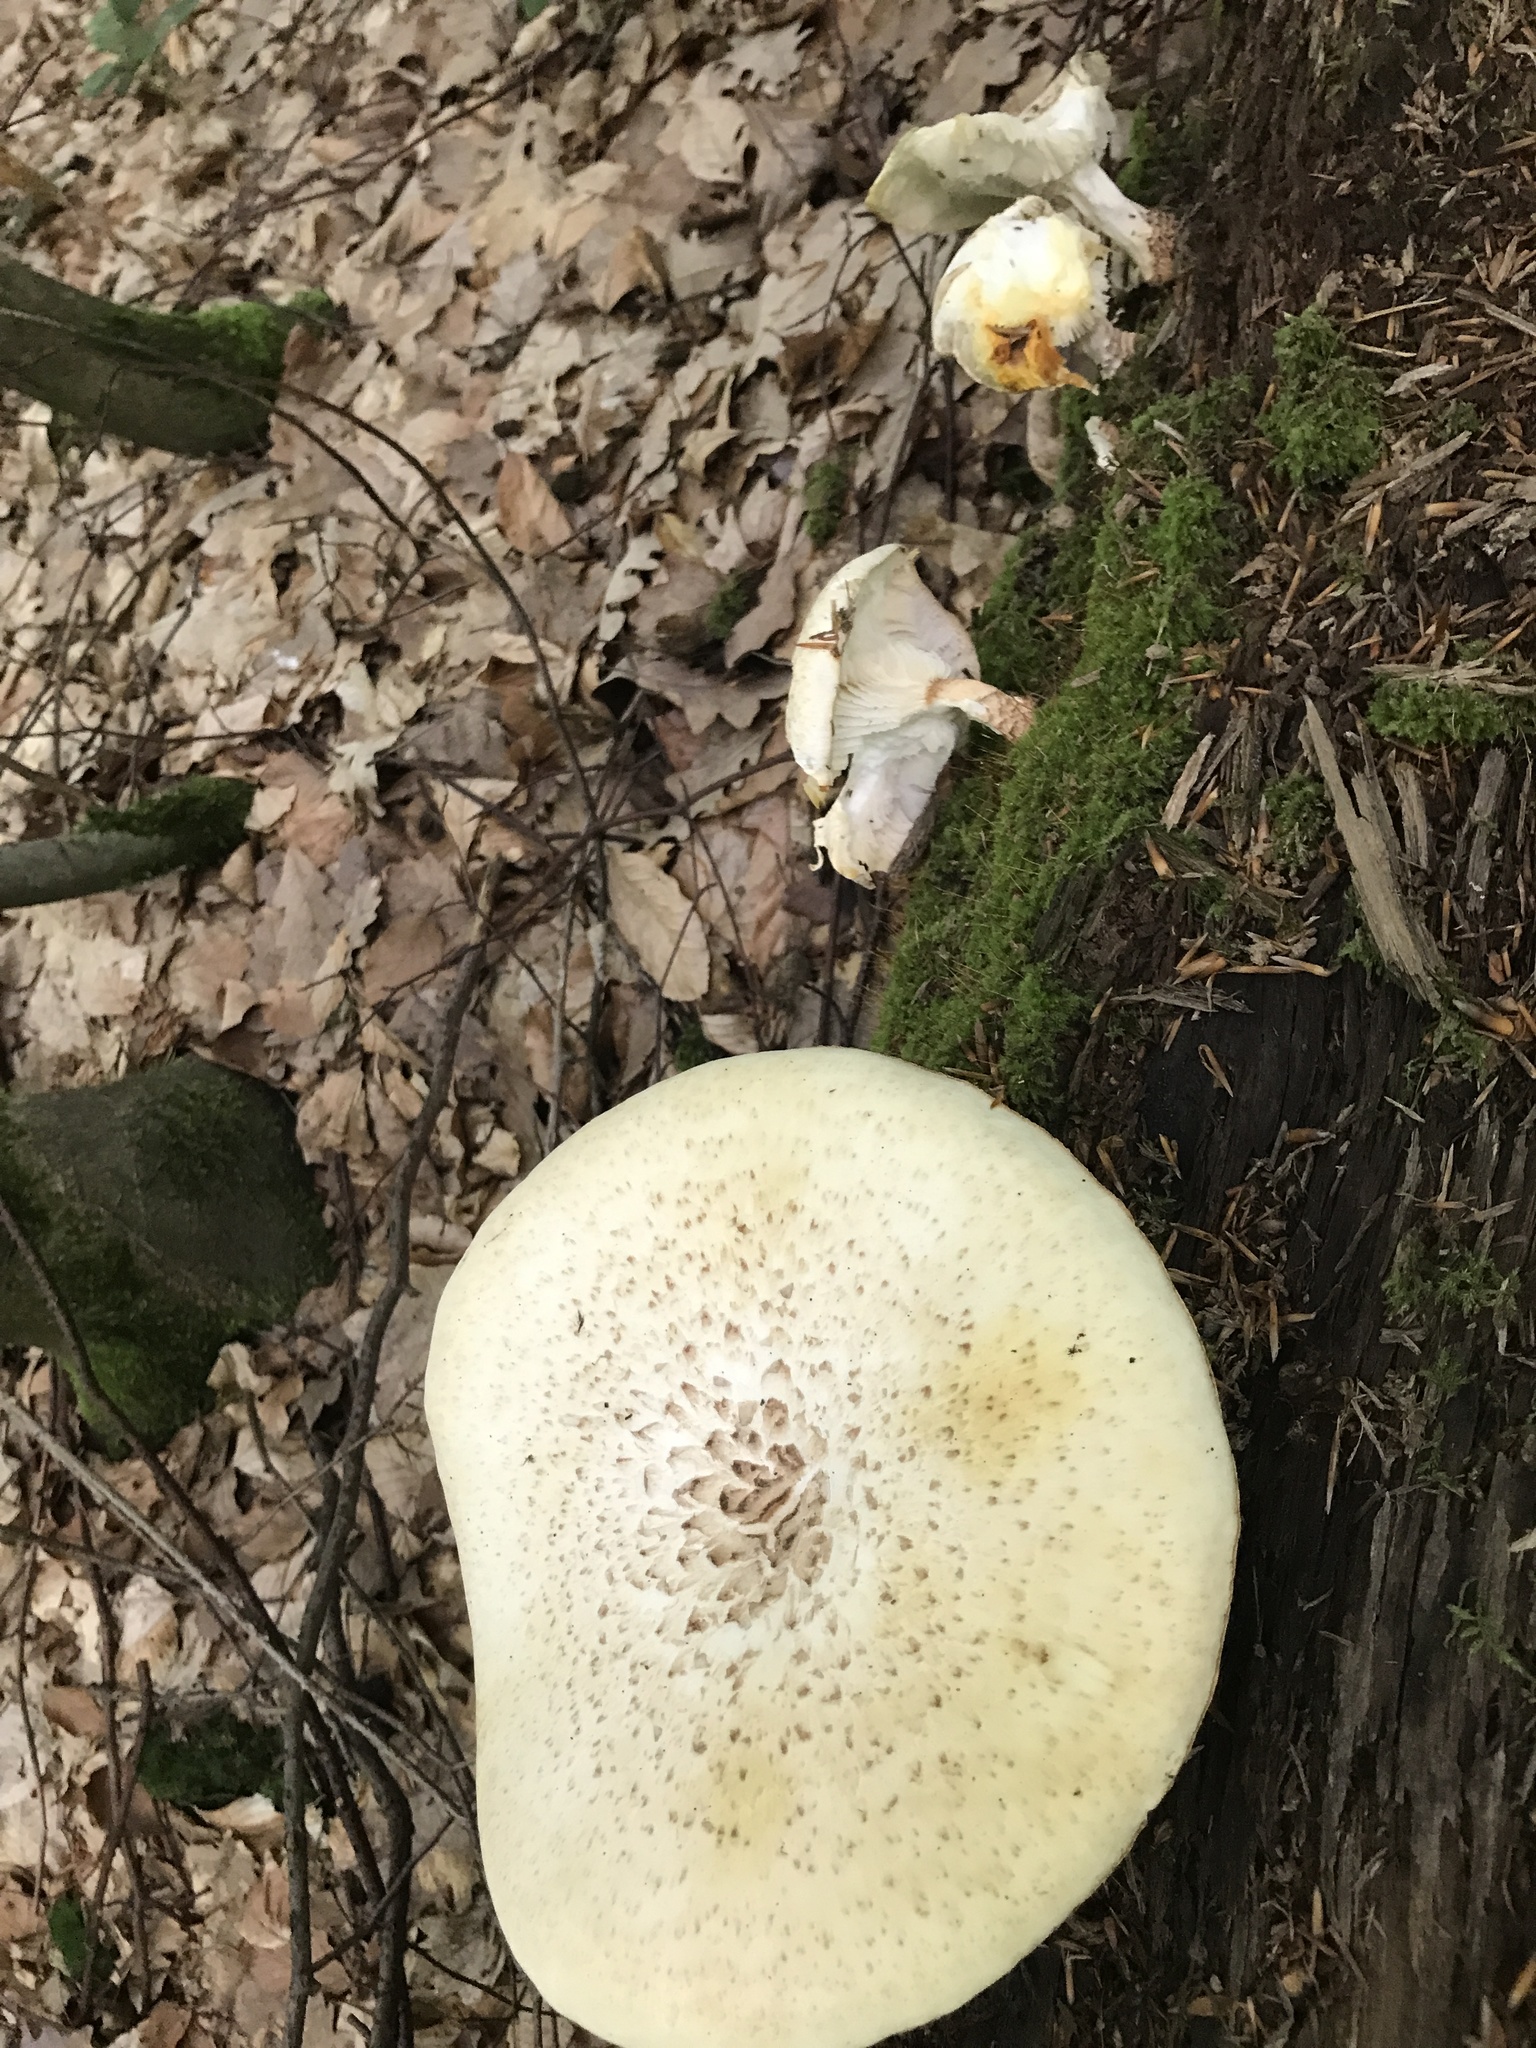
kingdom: Fungi
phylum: Basidiomycota
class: Agaricomycetes
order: Gloeophyllales
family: Gloeophyllaceae
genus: Neolentinus
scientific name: Neolentinus lepideus
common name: Scaly sawgill
